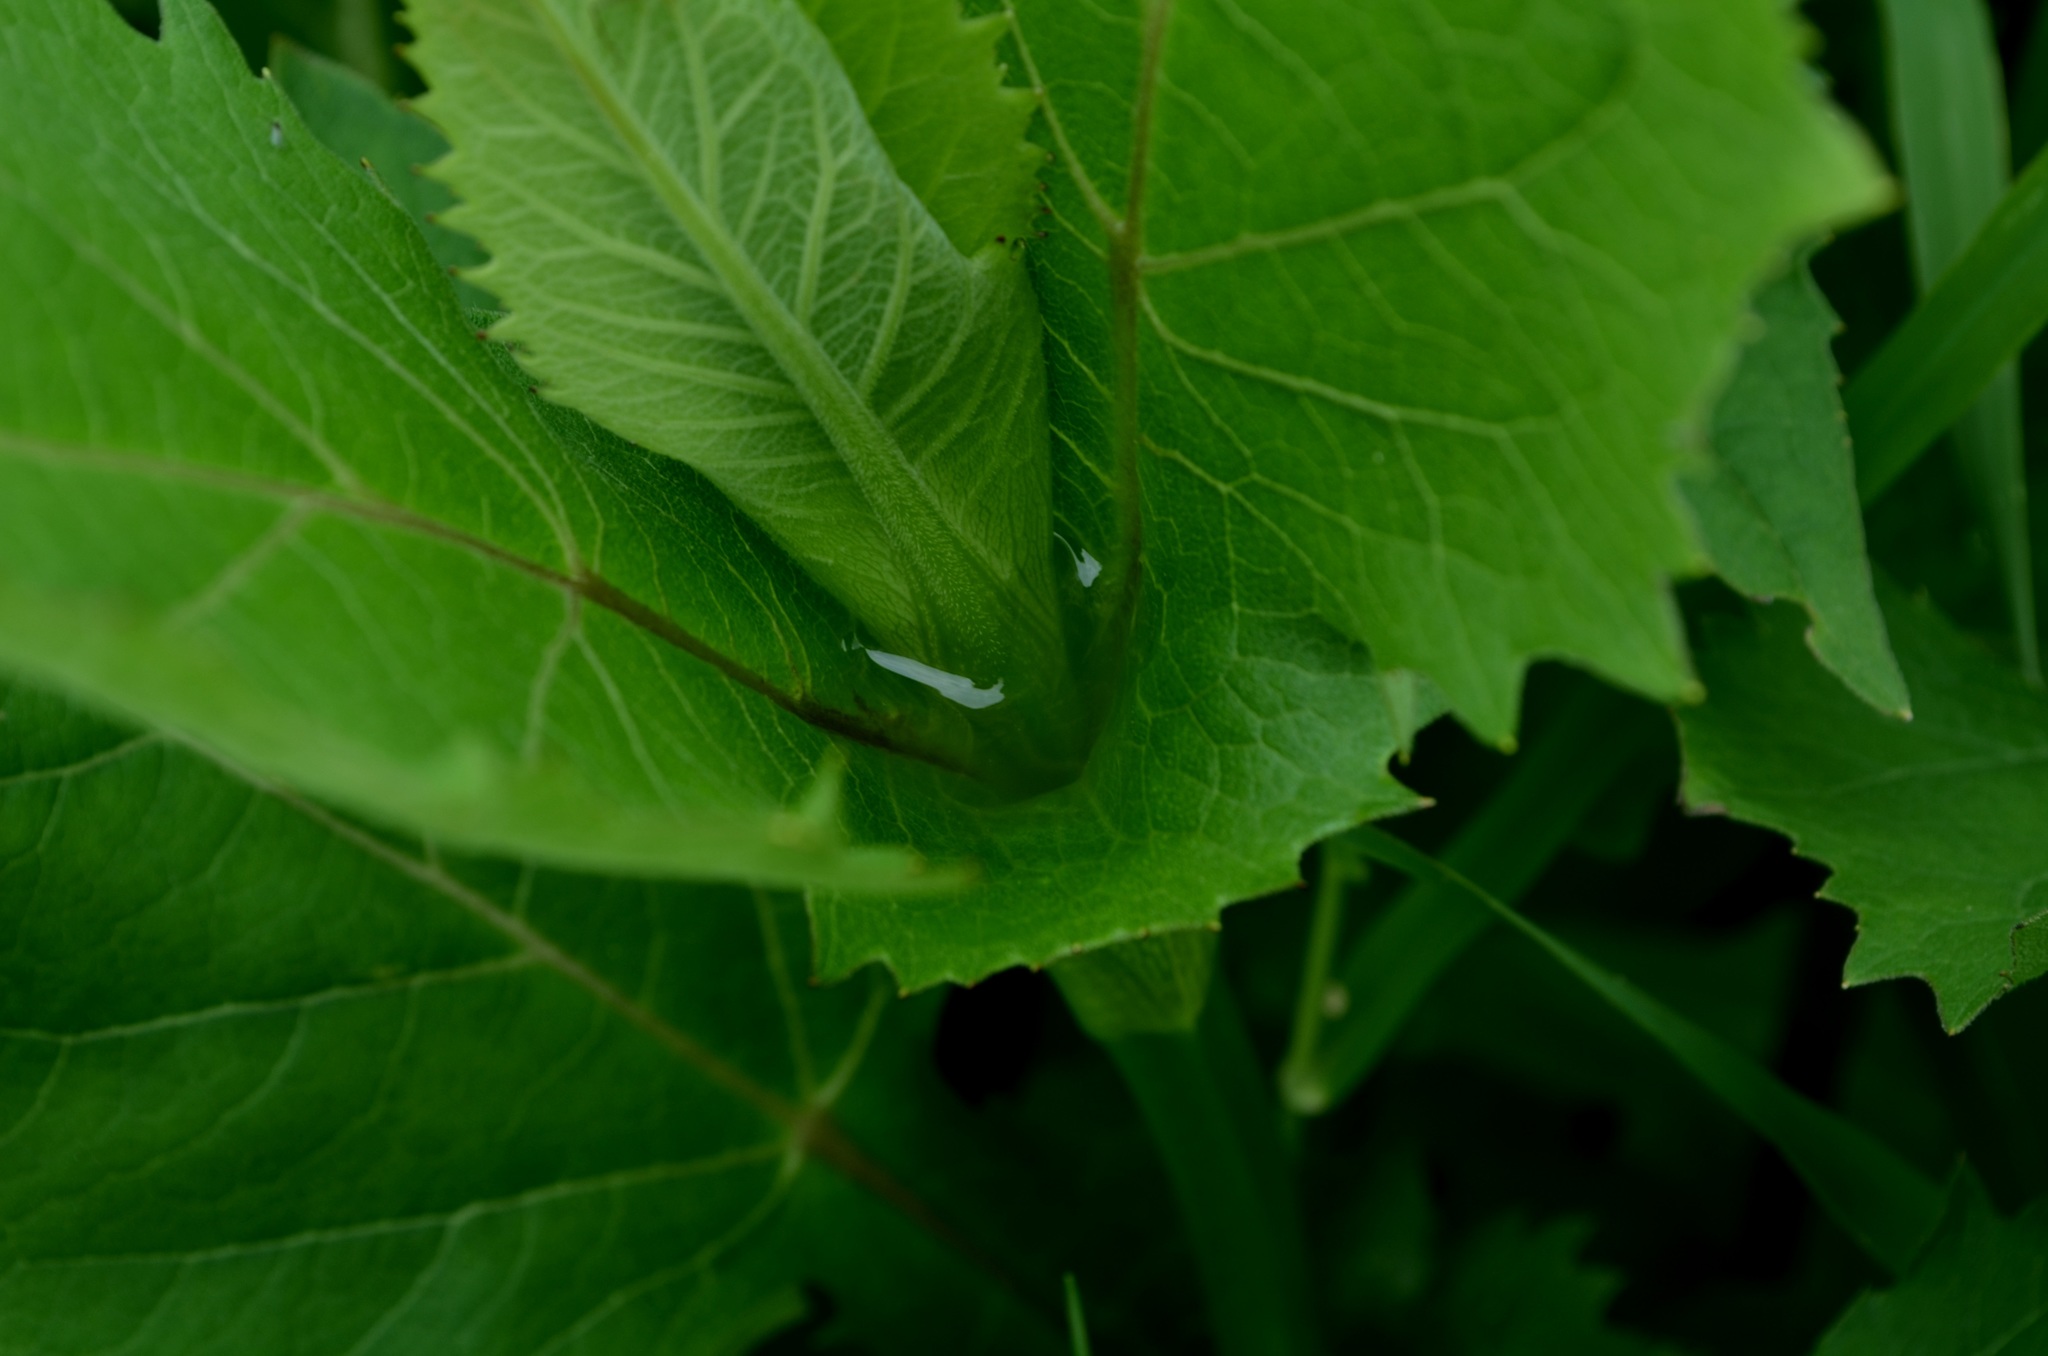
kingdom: Plantae
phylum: Tracheophyta
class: Magnoliopsida
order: Asterales
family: Asteraceae
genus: Silphium
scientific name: Silphium perfoliatum
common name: Cup-plant
